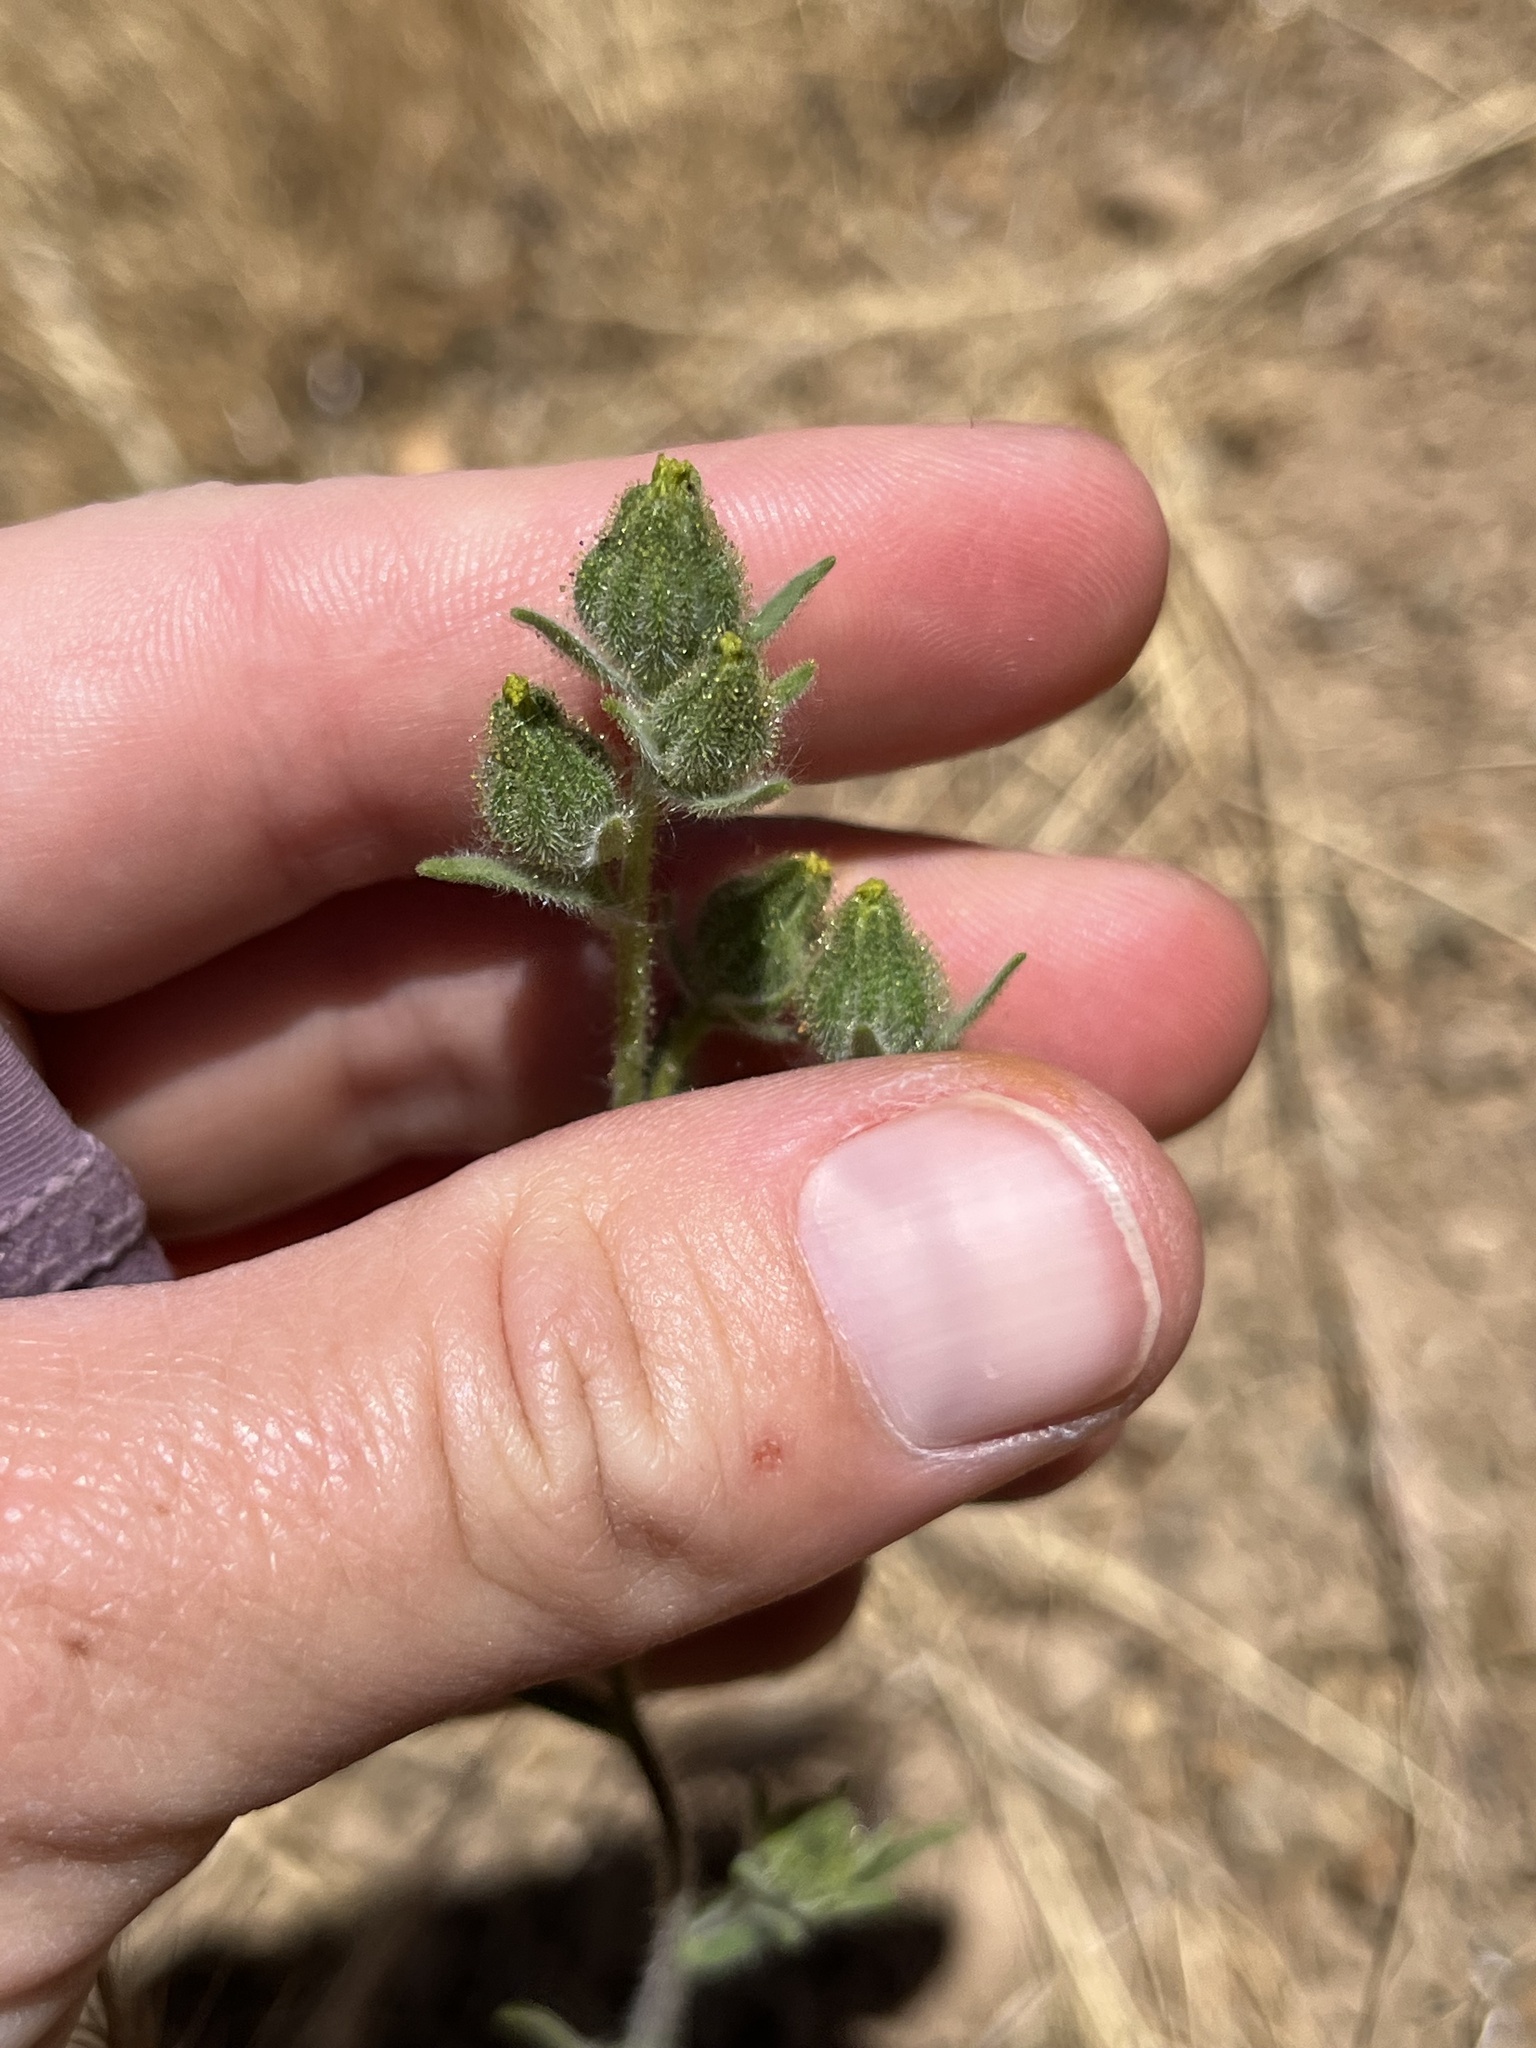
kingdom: Plantae
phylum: Tracheophyta
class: Magnoliopsida
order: Asterales
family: Asteraceae
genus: Madia
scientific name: Madia gracilis
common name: Grassy tarweed
